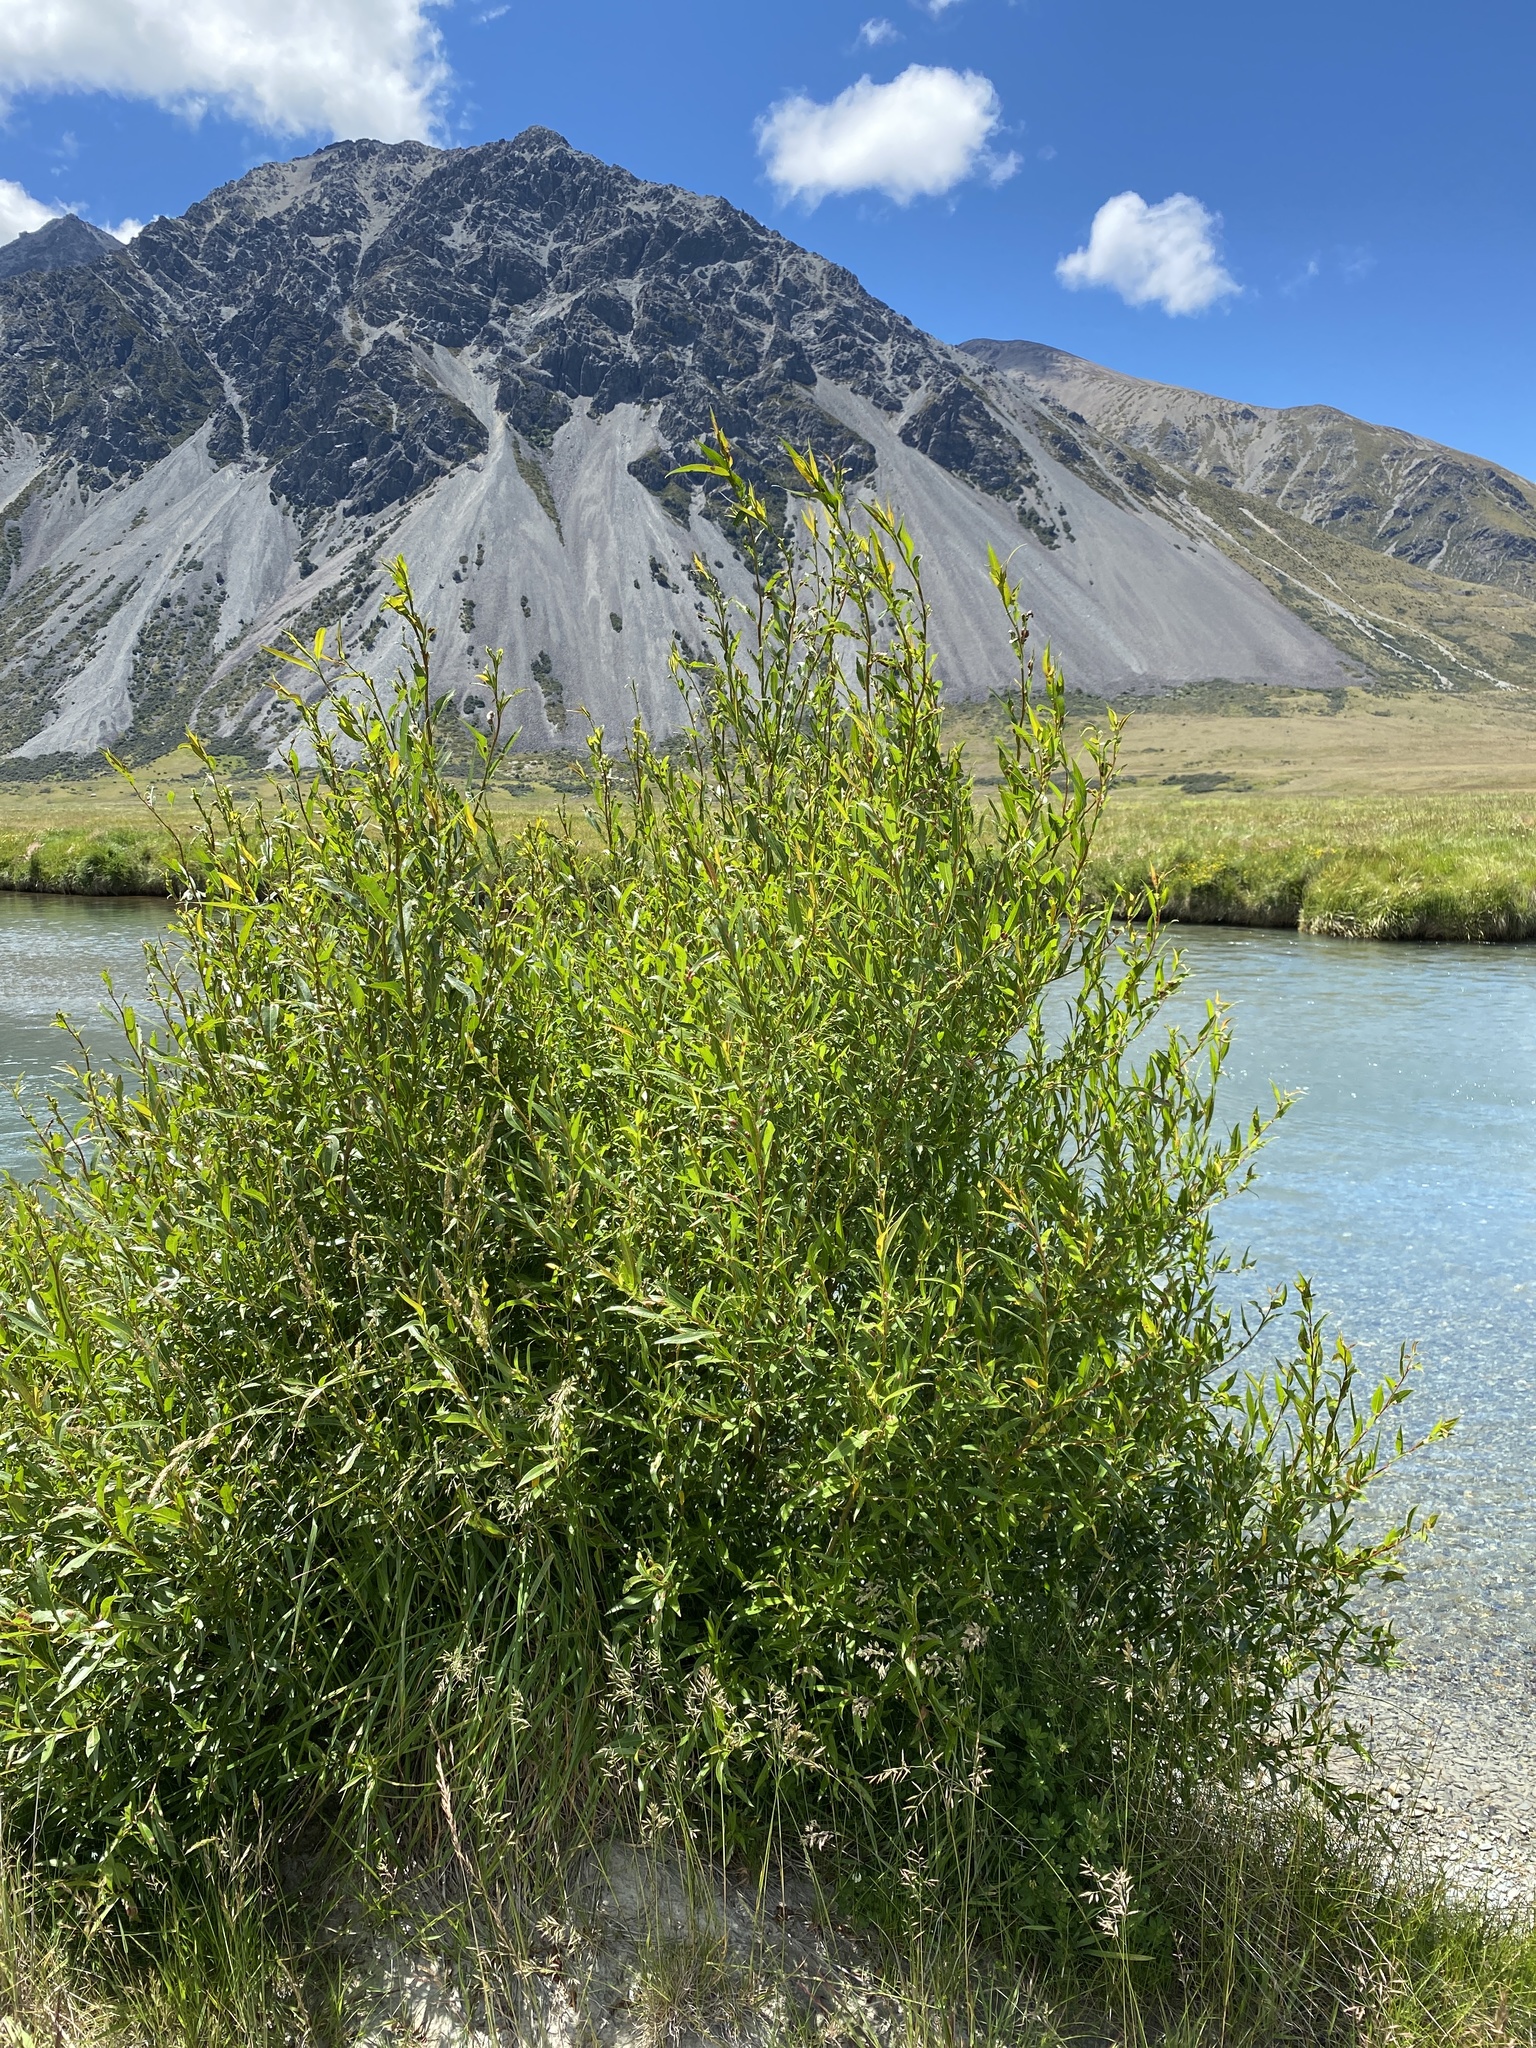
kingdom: Plantae
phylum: Tracheophyta
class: Magnoliopsida
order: Malpighiales
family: Salicaceae
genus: Salix
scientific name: Salix fragilis
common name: Crack willow
